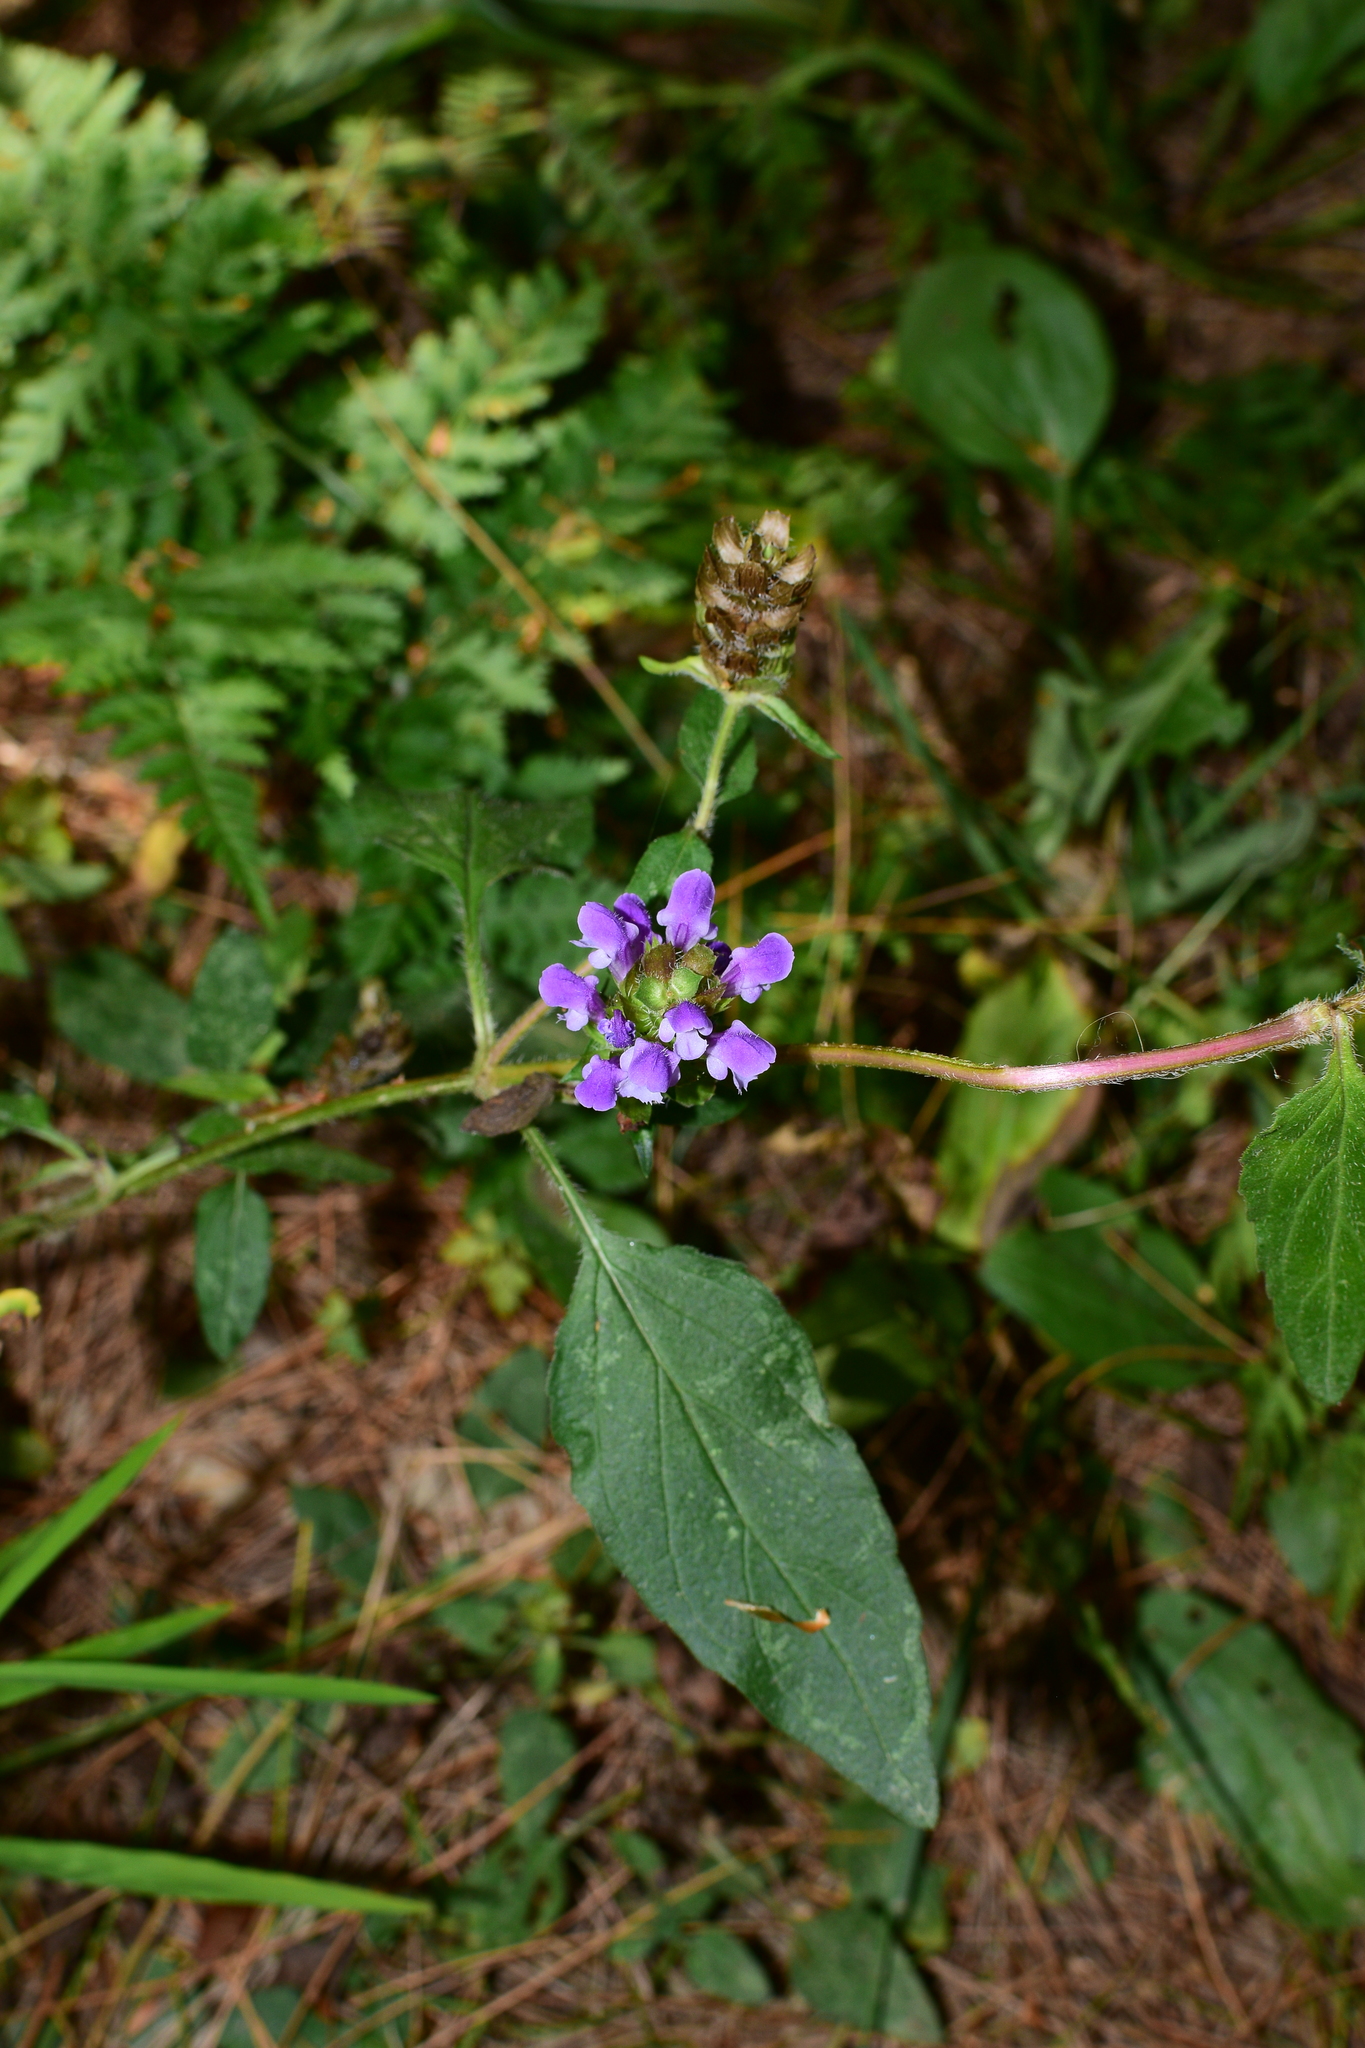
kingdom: Plantae
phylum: Tracheophyta
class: Magnoliopsida
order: Lamiales
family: Lamiaceae
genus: Prunella
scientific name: Prunella vulgaris
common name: Heal-all
